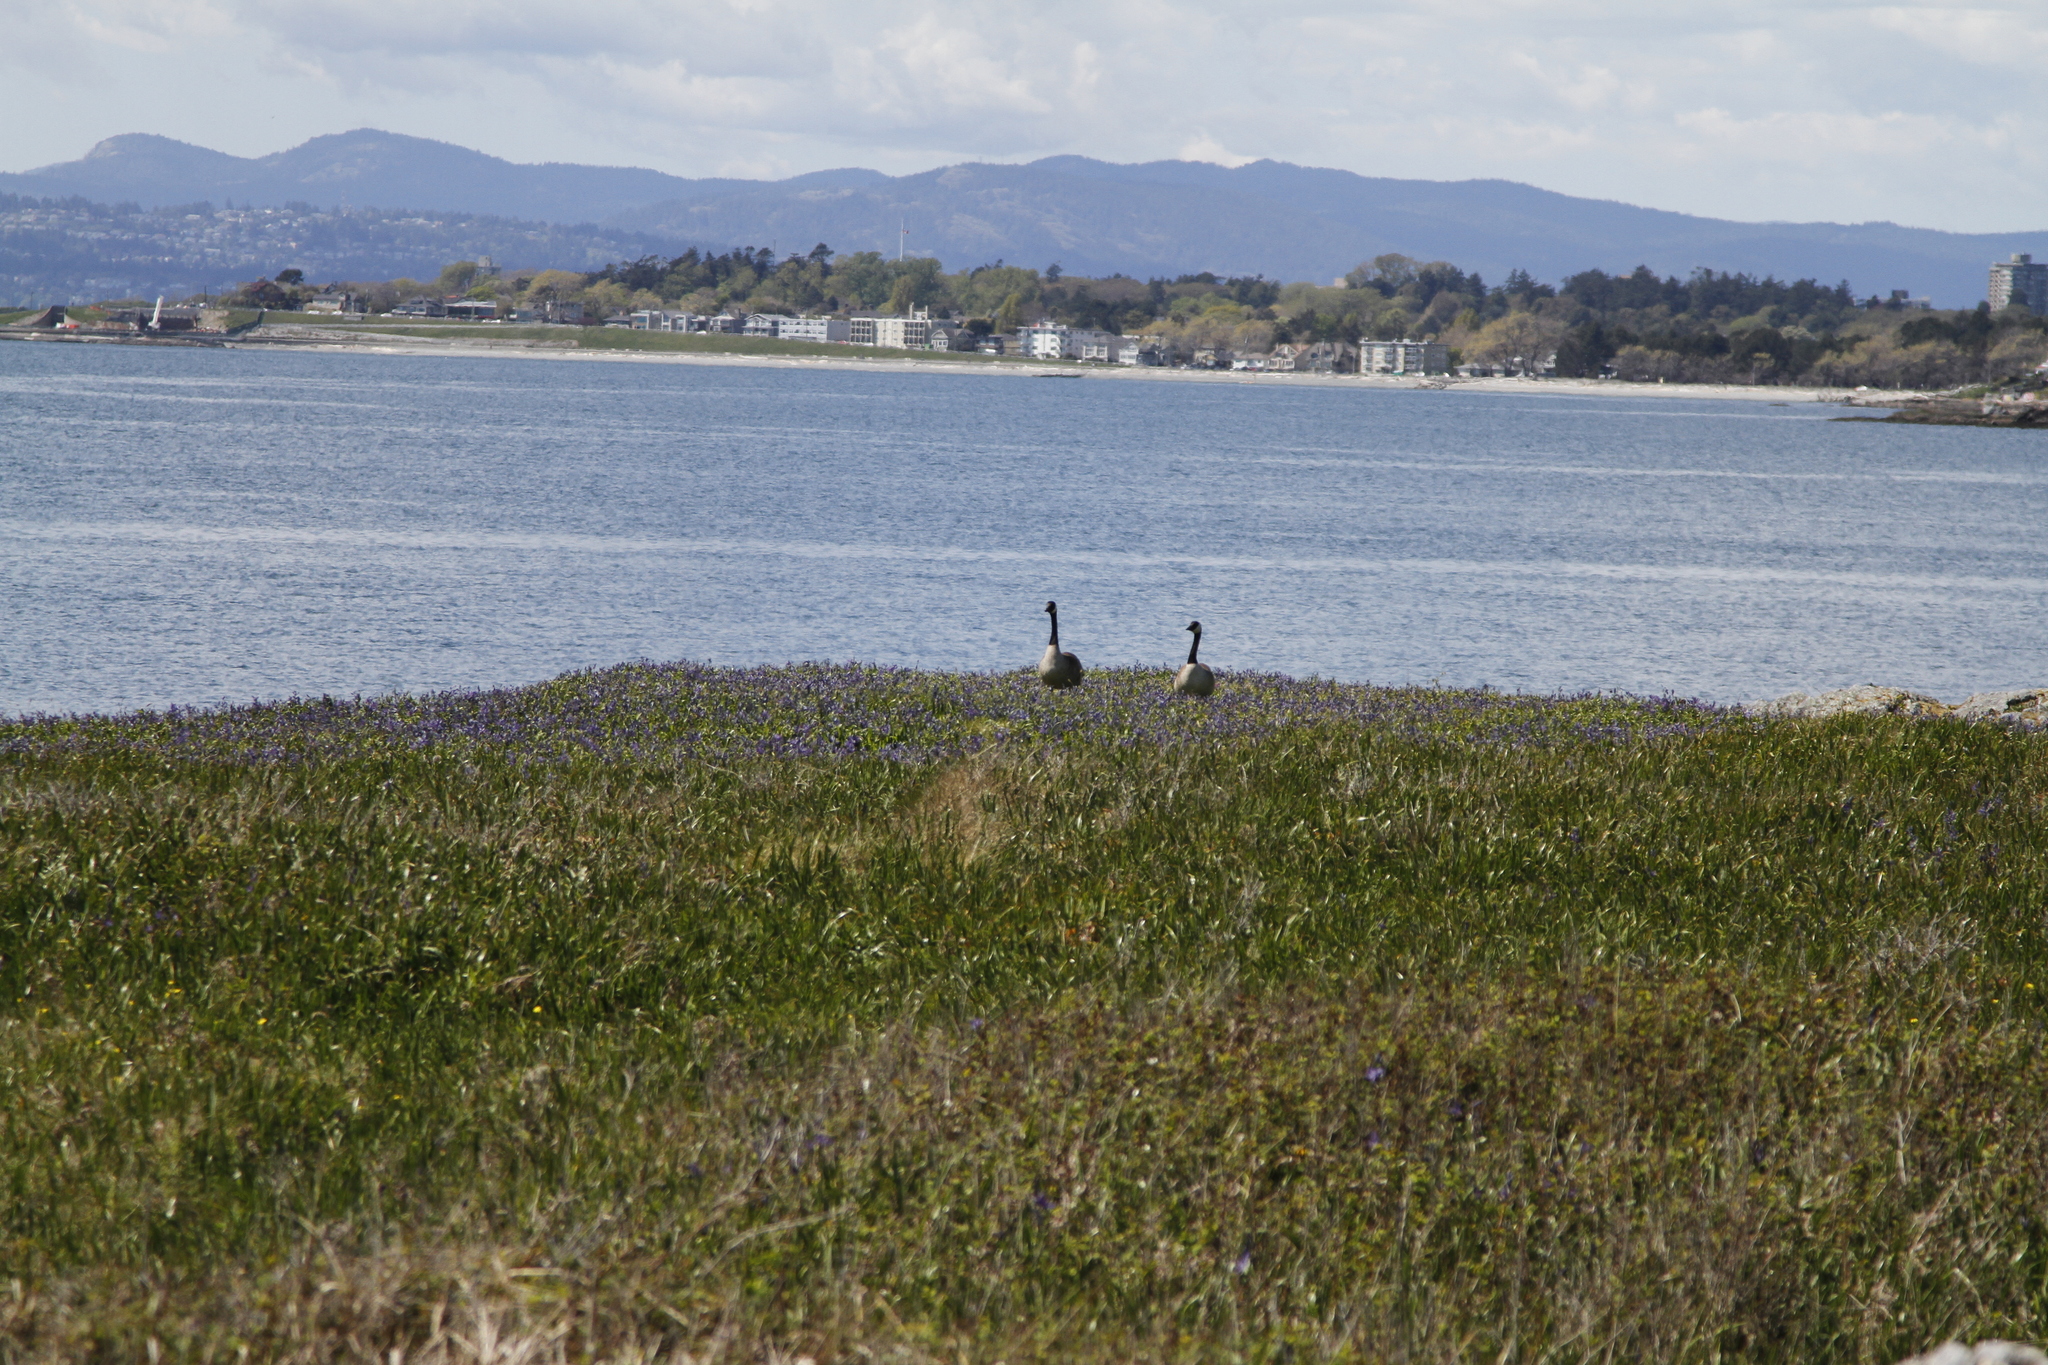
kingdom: Animalia
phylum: Chordata
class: Aves
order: Anseriformes
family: Anatidae
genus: Branta
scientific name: Branta canadensis
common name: Canada goose
